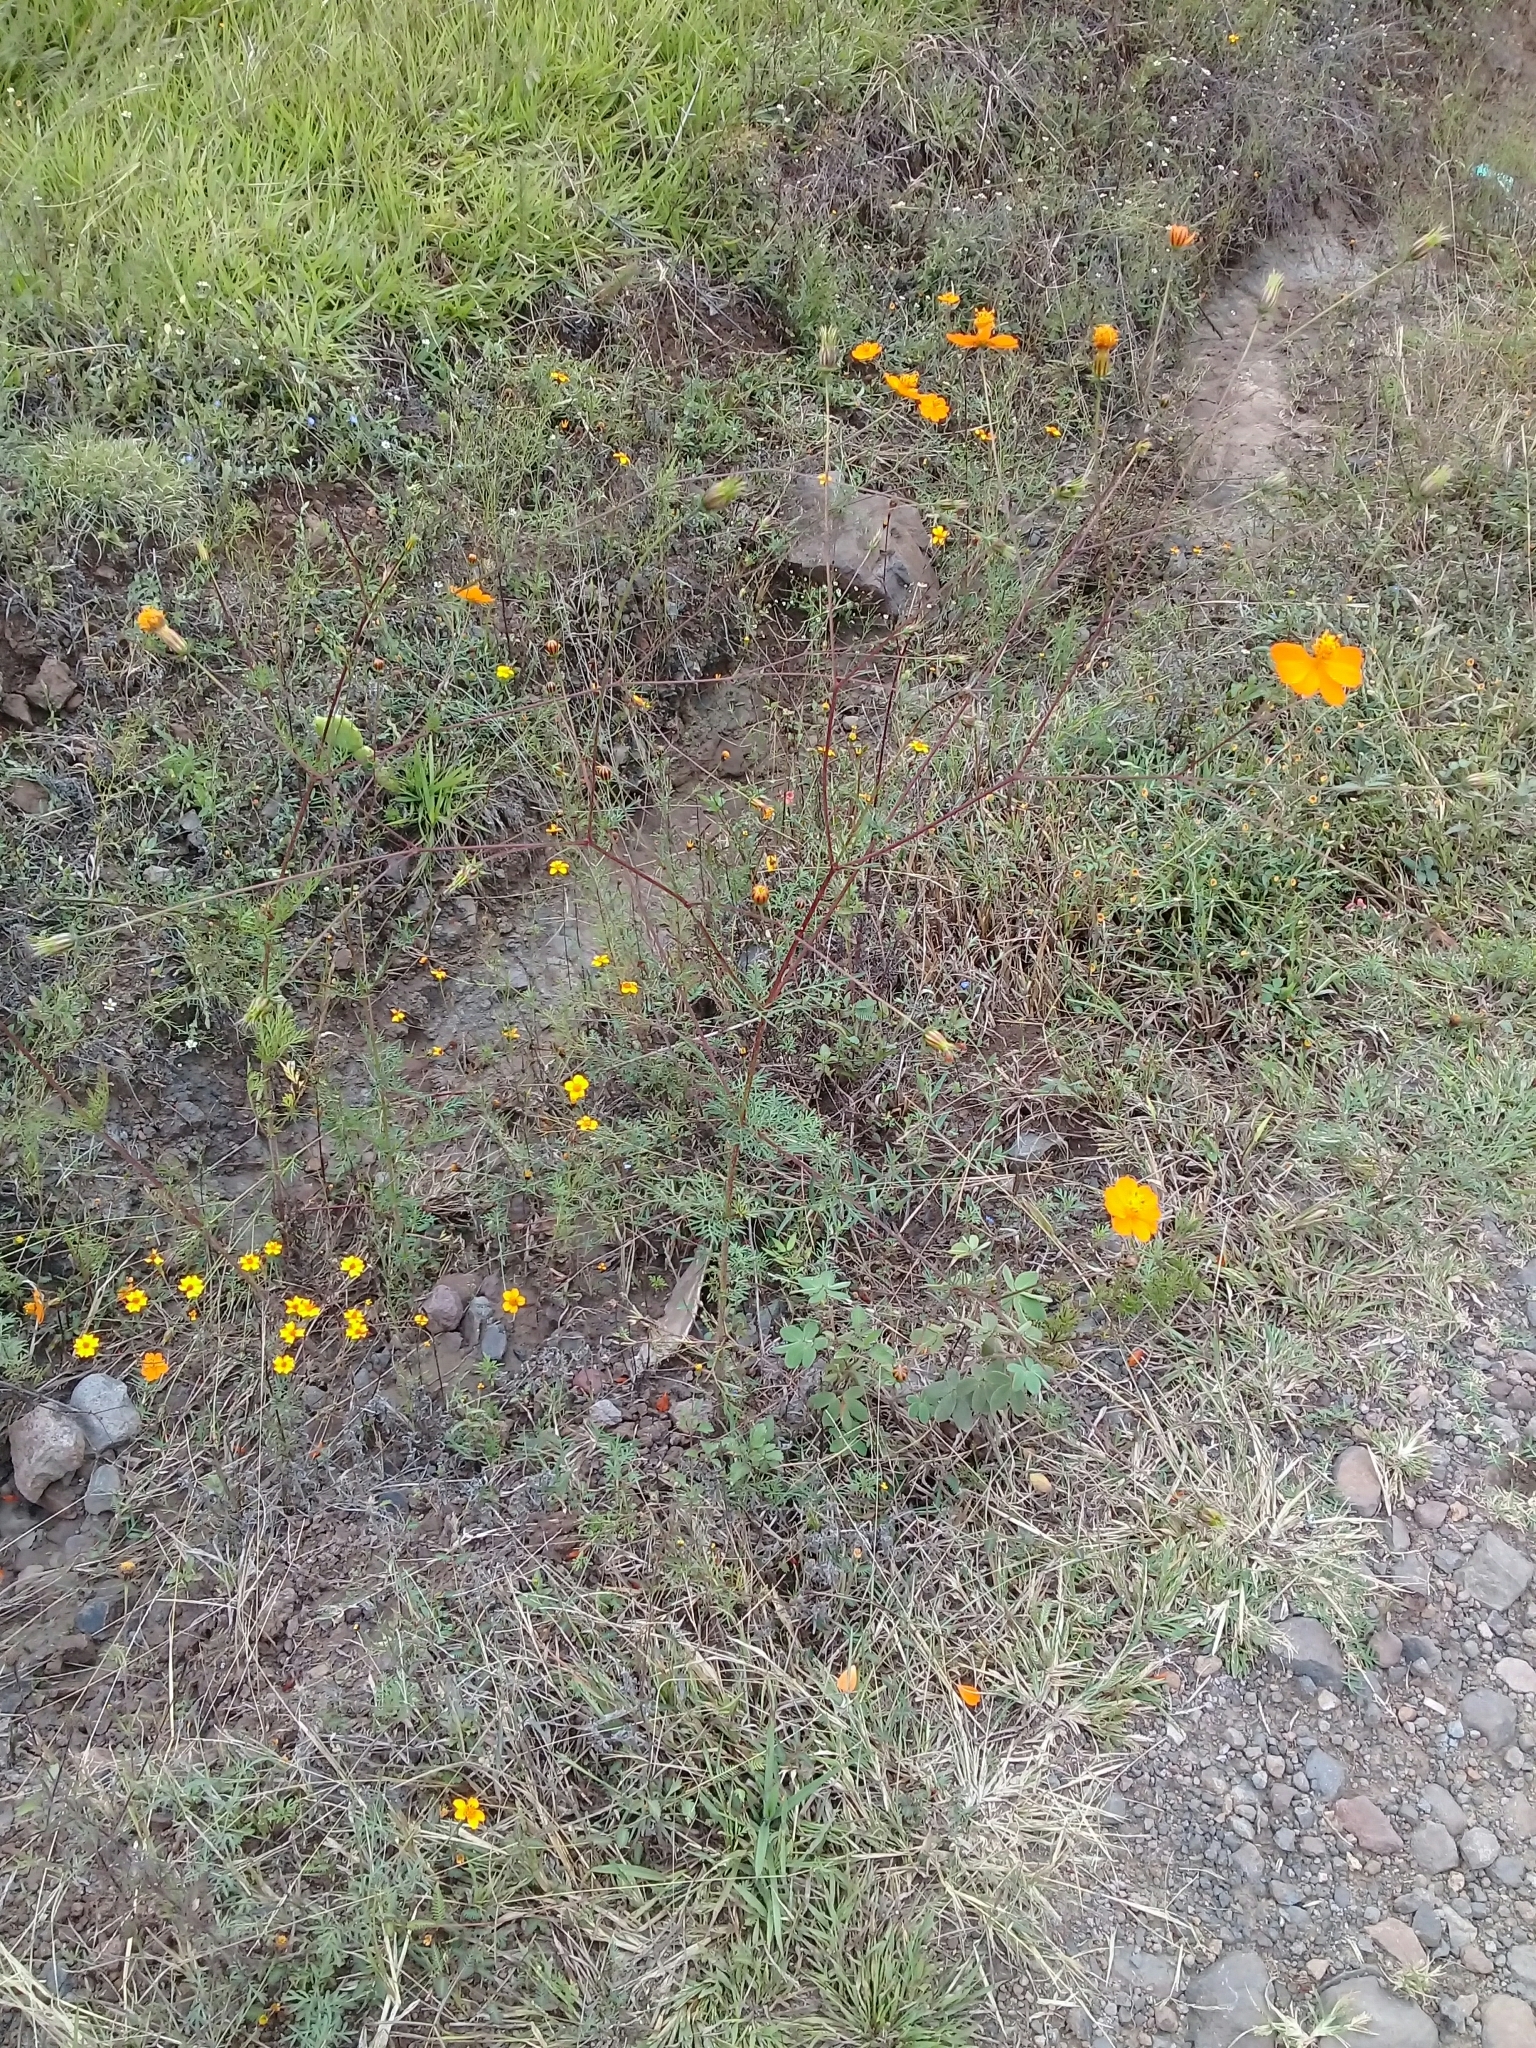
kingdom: Plantae
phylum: Tracheophyta
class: Magnoliopsida
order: Asterales
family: Asteraceae
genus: Cosmos
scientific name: Cosmos sulphureus
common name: Sulphur cosmos
